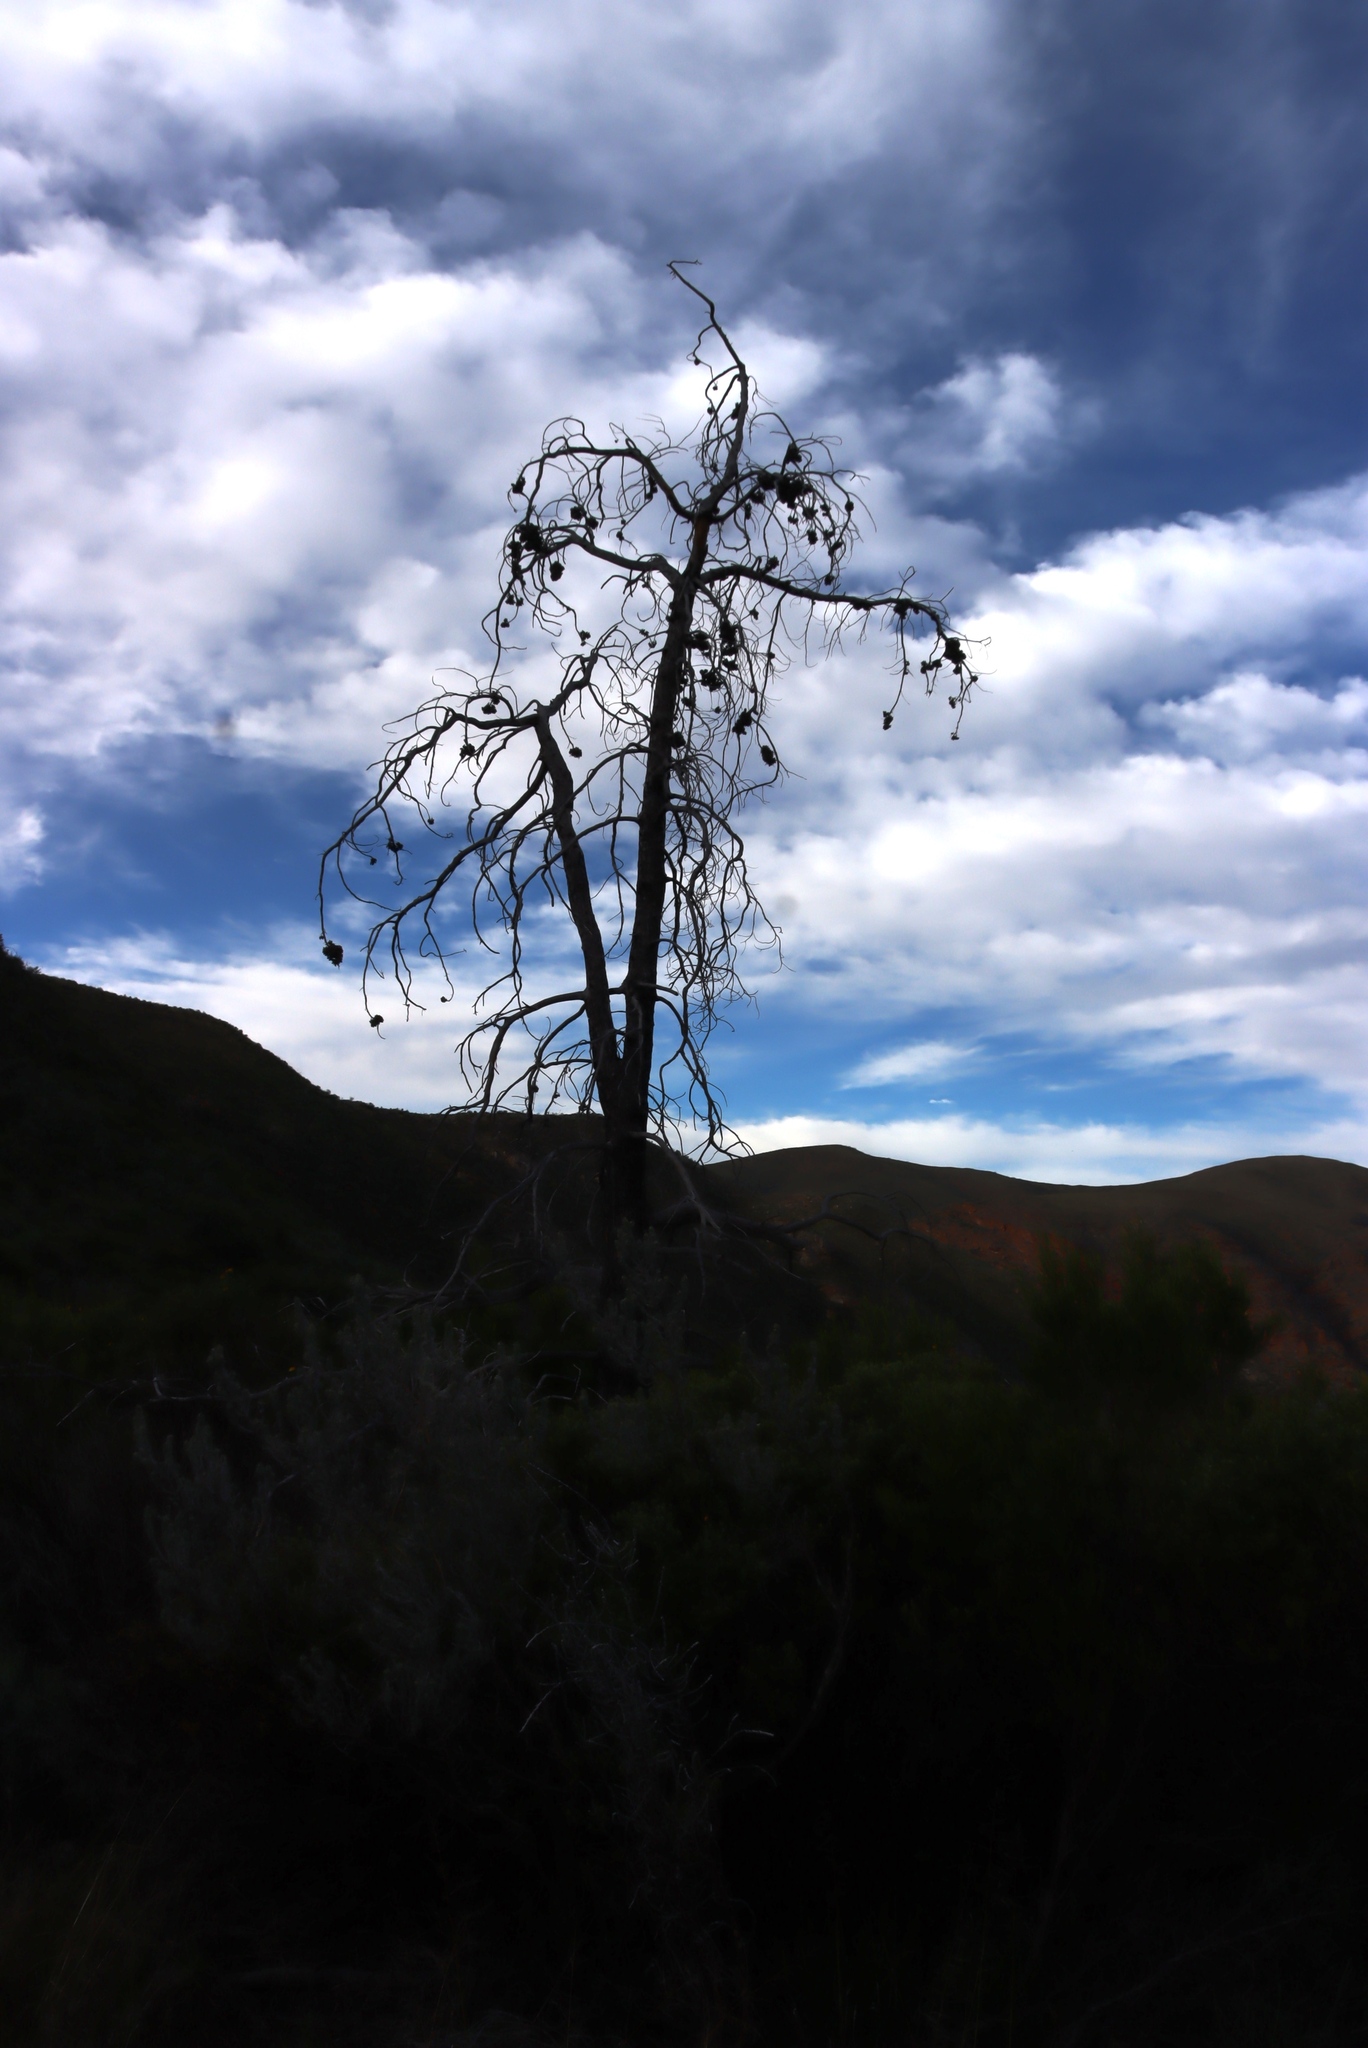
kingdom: Plantae
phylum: Tracheophyta
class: Pinopsida
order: Pinales
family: Cupressaceae
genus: Widdringtonia
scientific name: Widdringtonia schwarzii
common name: Baviaans cedar
